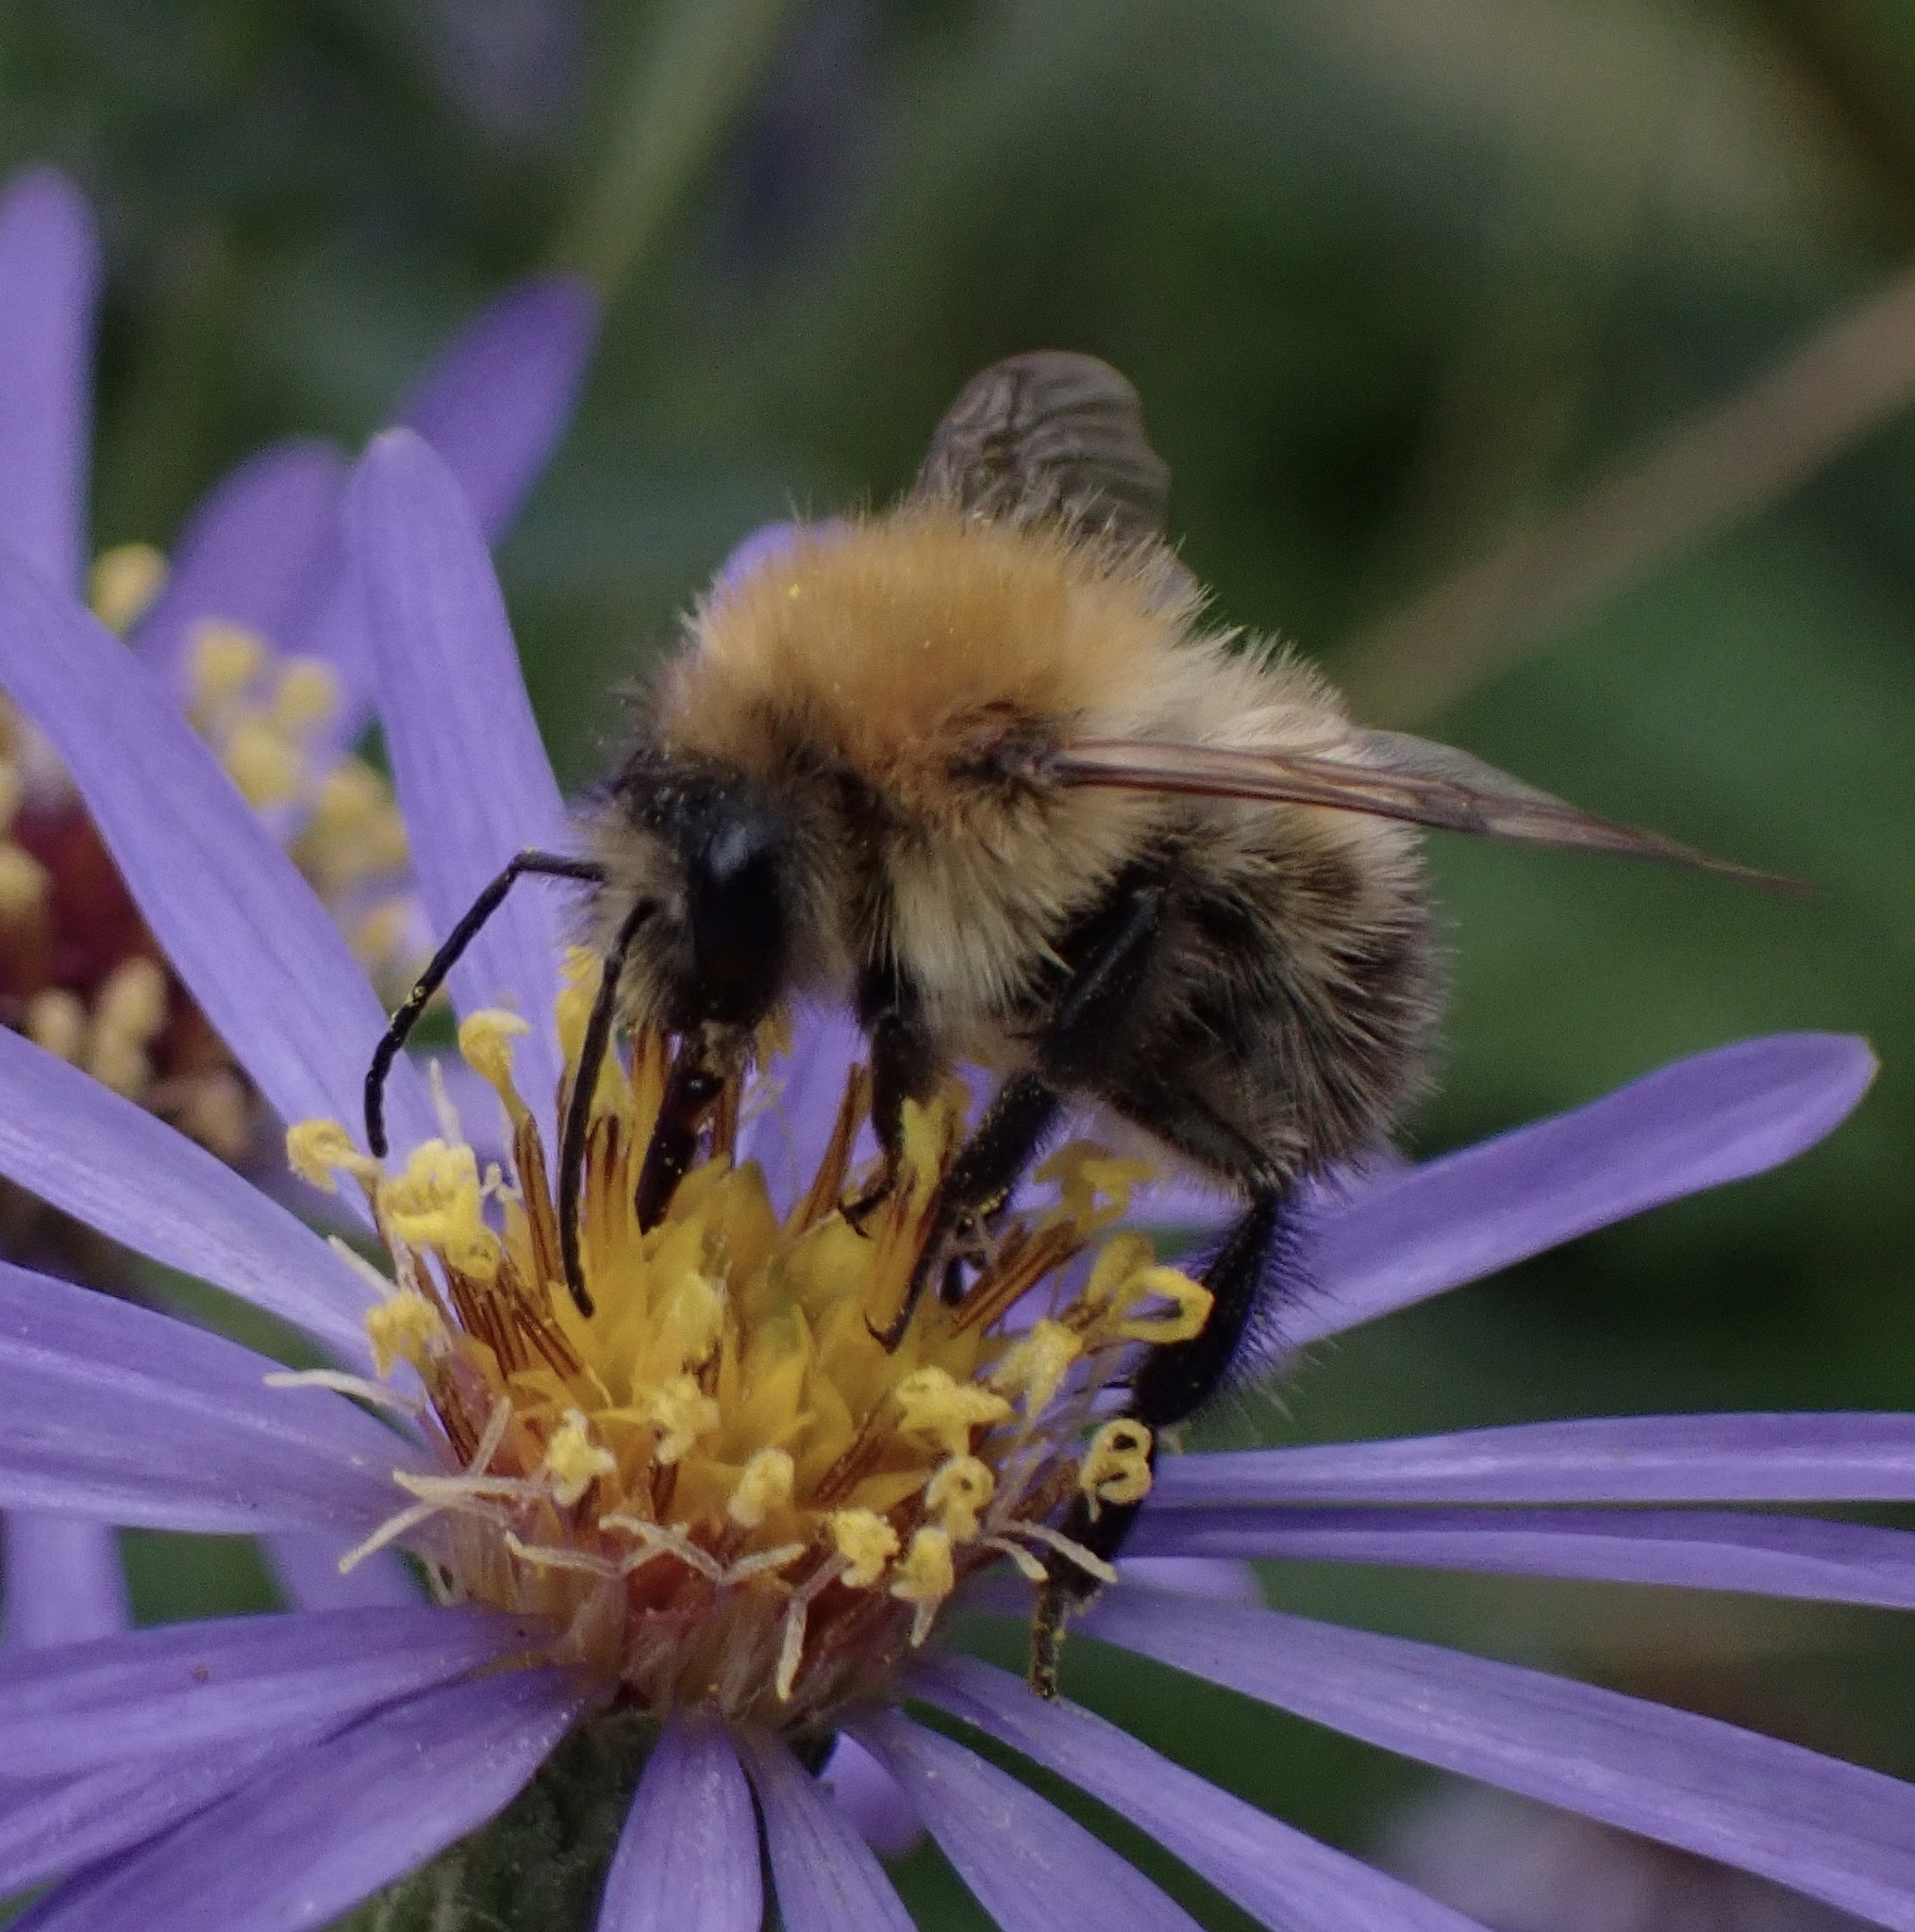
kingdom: Animalia
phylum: Arthropoda
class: Insecta
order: Hymenoptera
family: Apidae
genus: Bombus
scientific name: Bombus pascuorum
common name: Common carder bee
